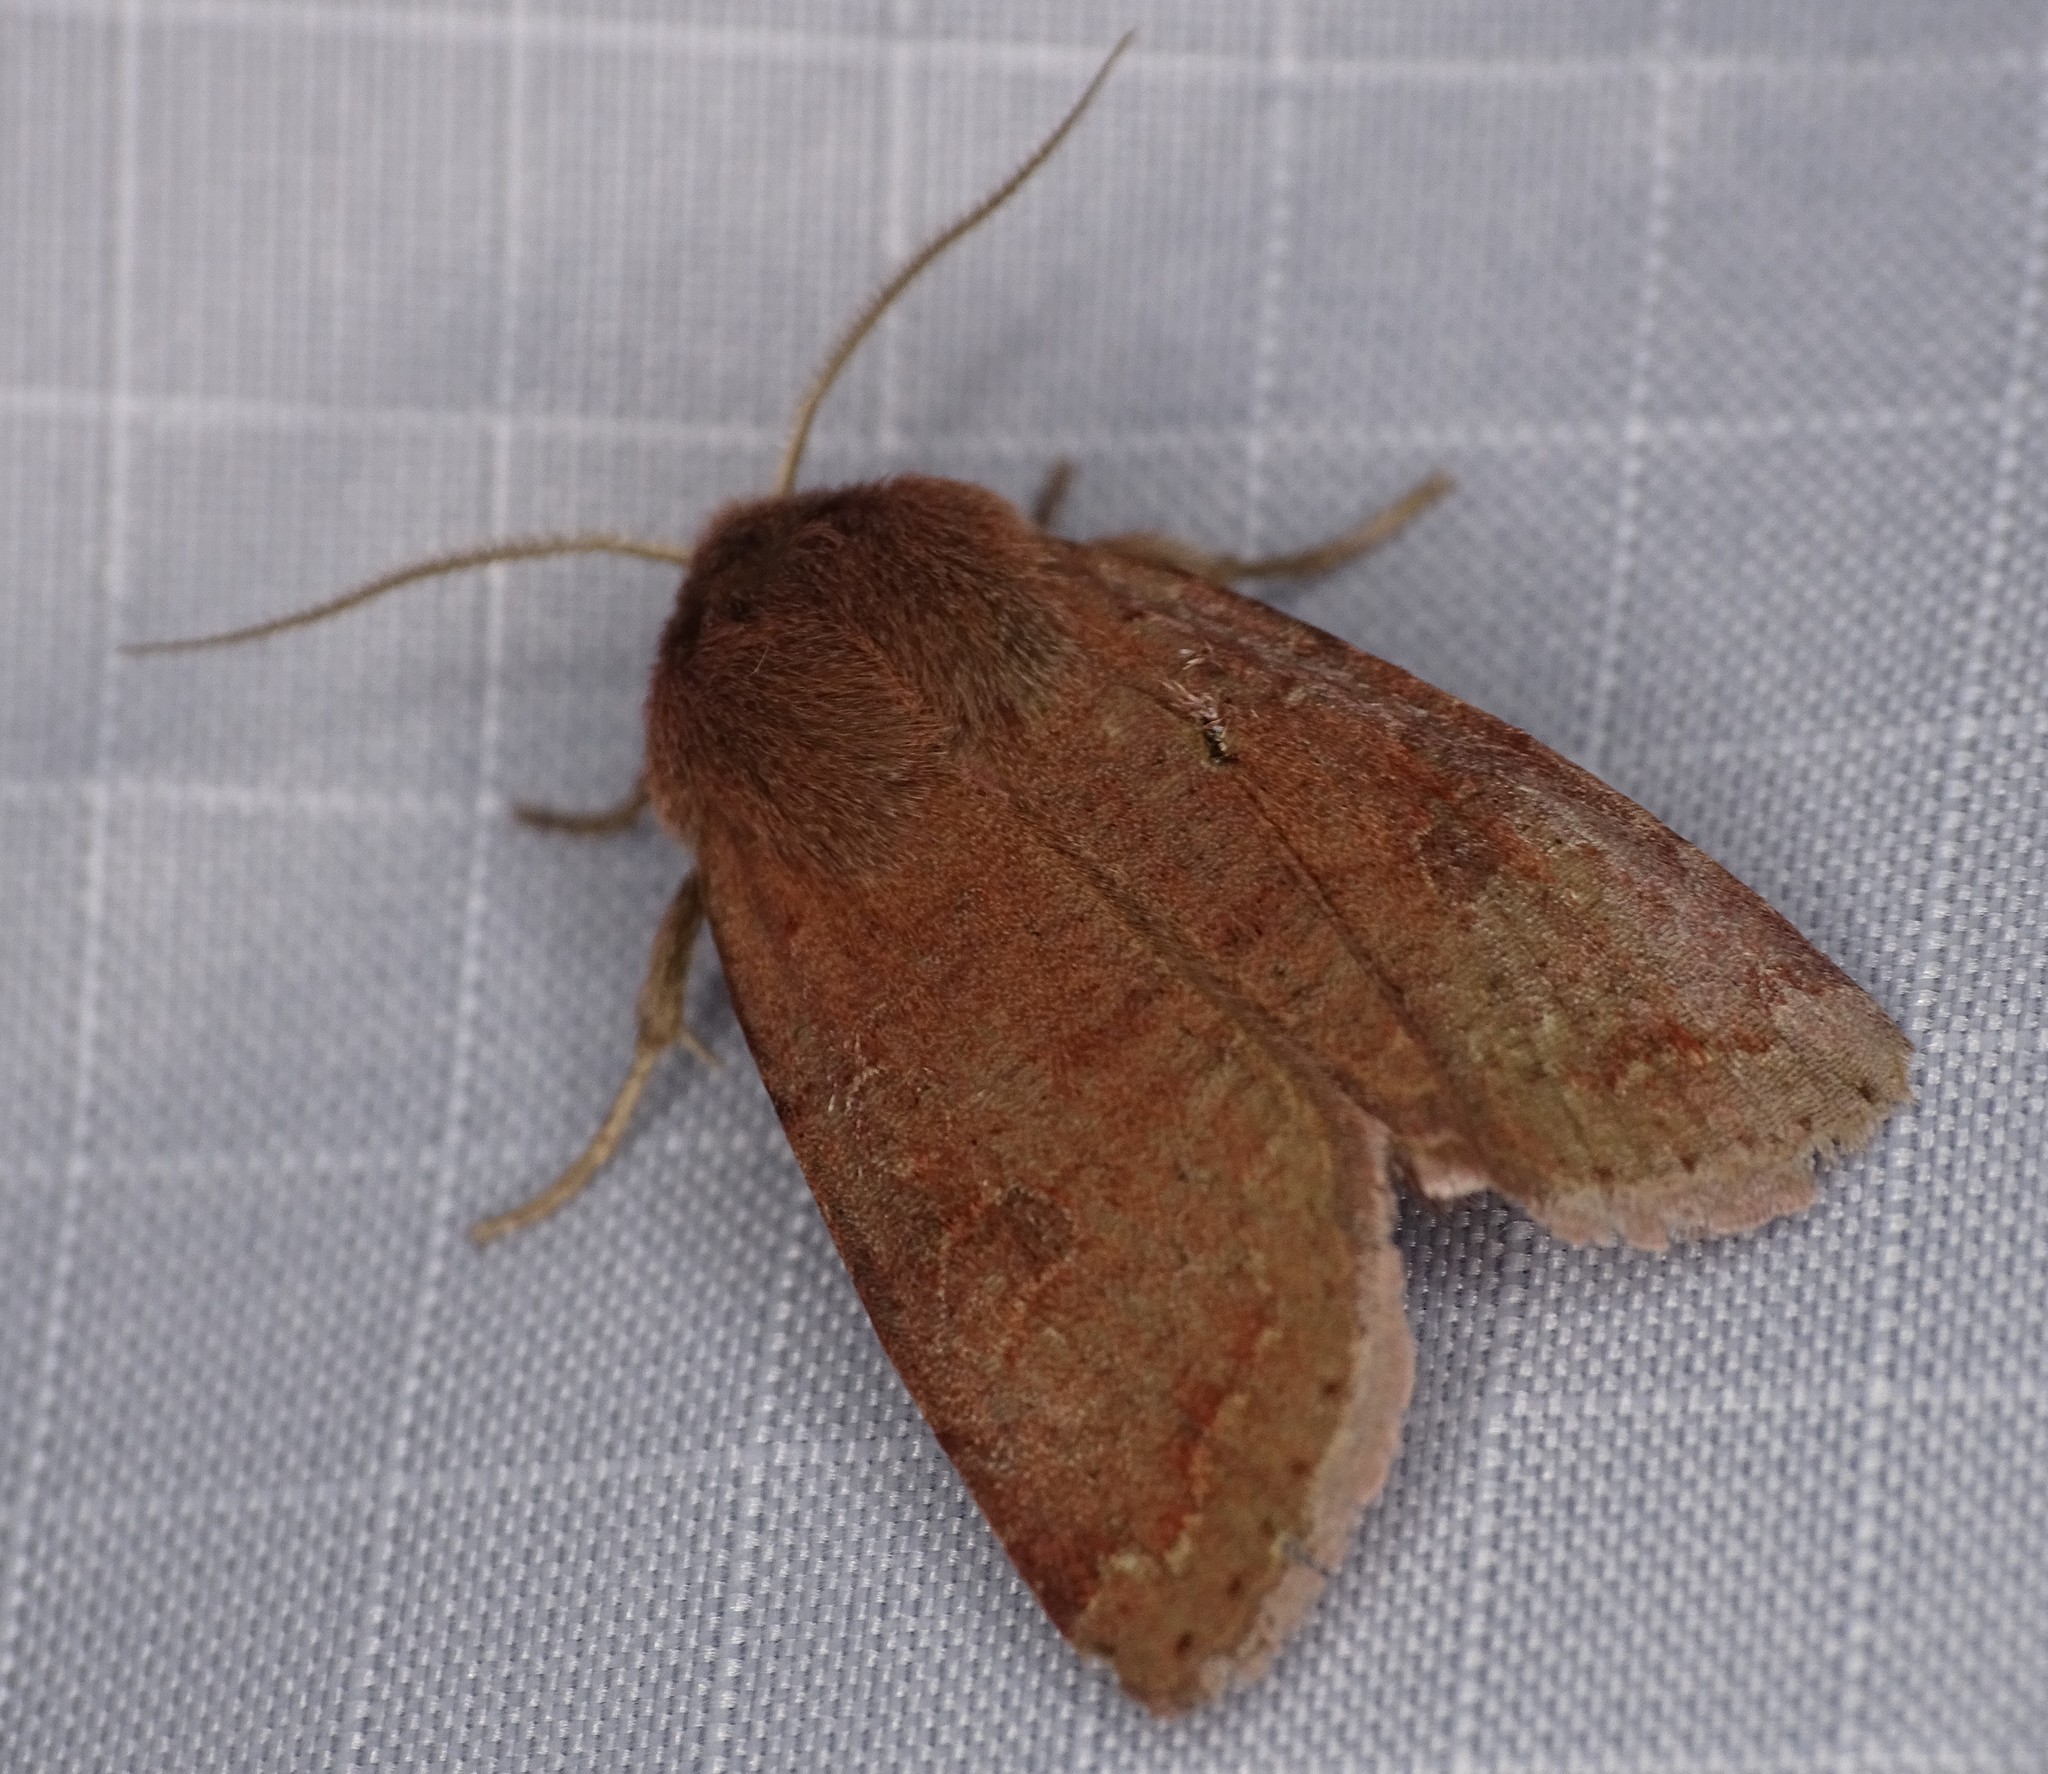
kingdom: Animalia
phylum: Arthropoda
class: Insecta
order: Lepidoptera
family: Noctuidae
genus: Orthosia
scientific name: Orthosia hibisci
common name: Green fruitworm
